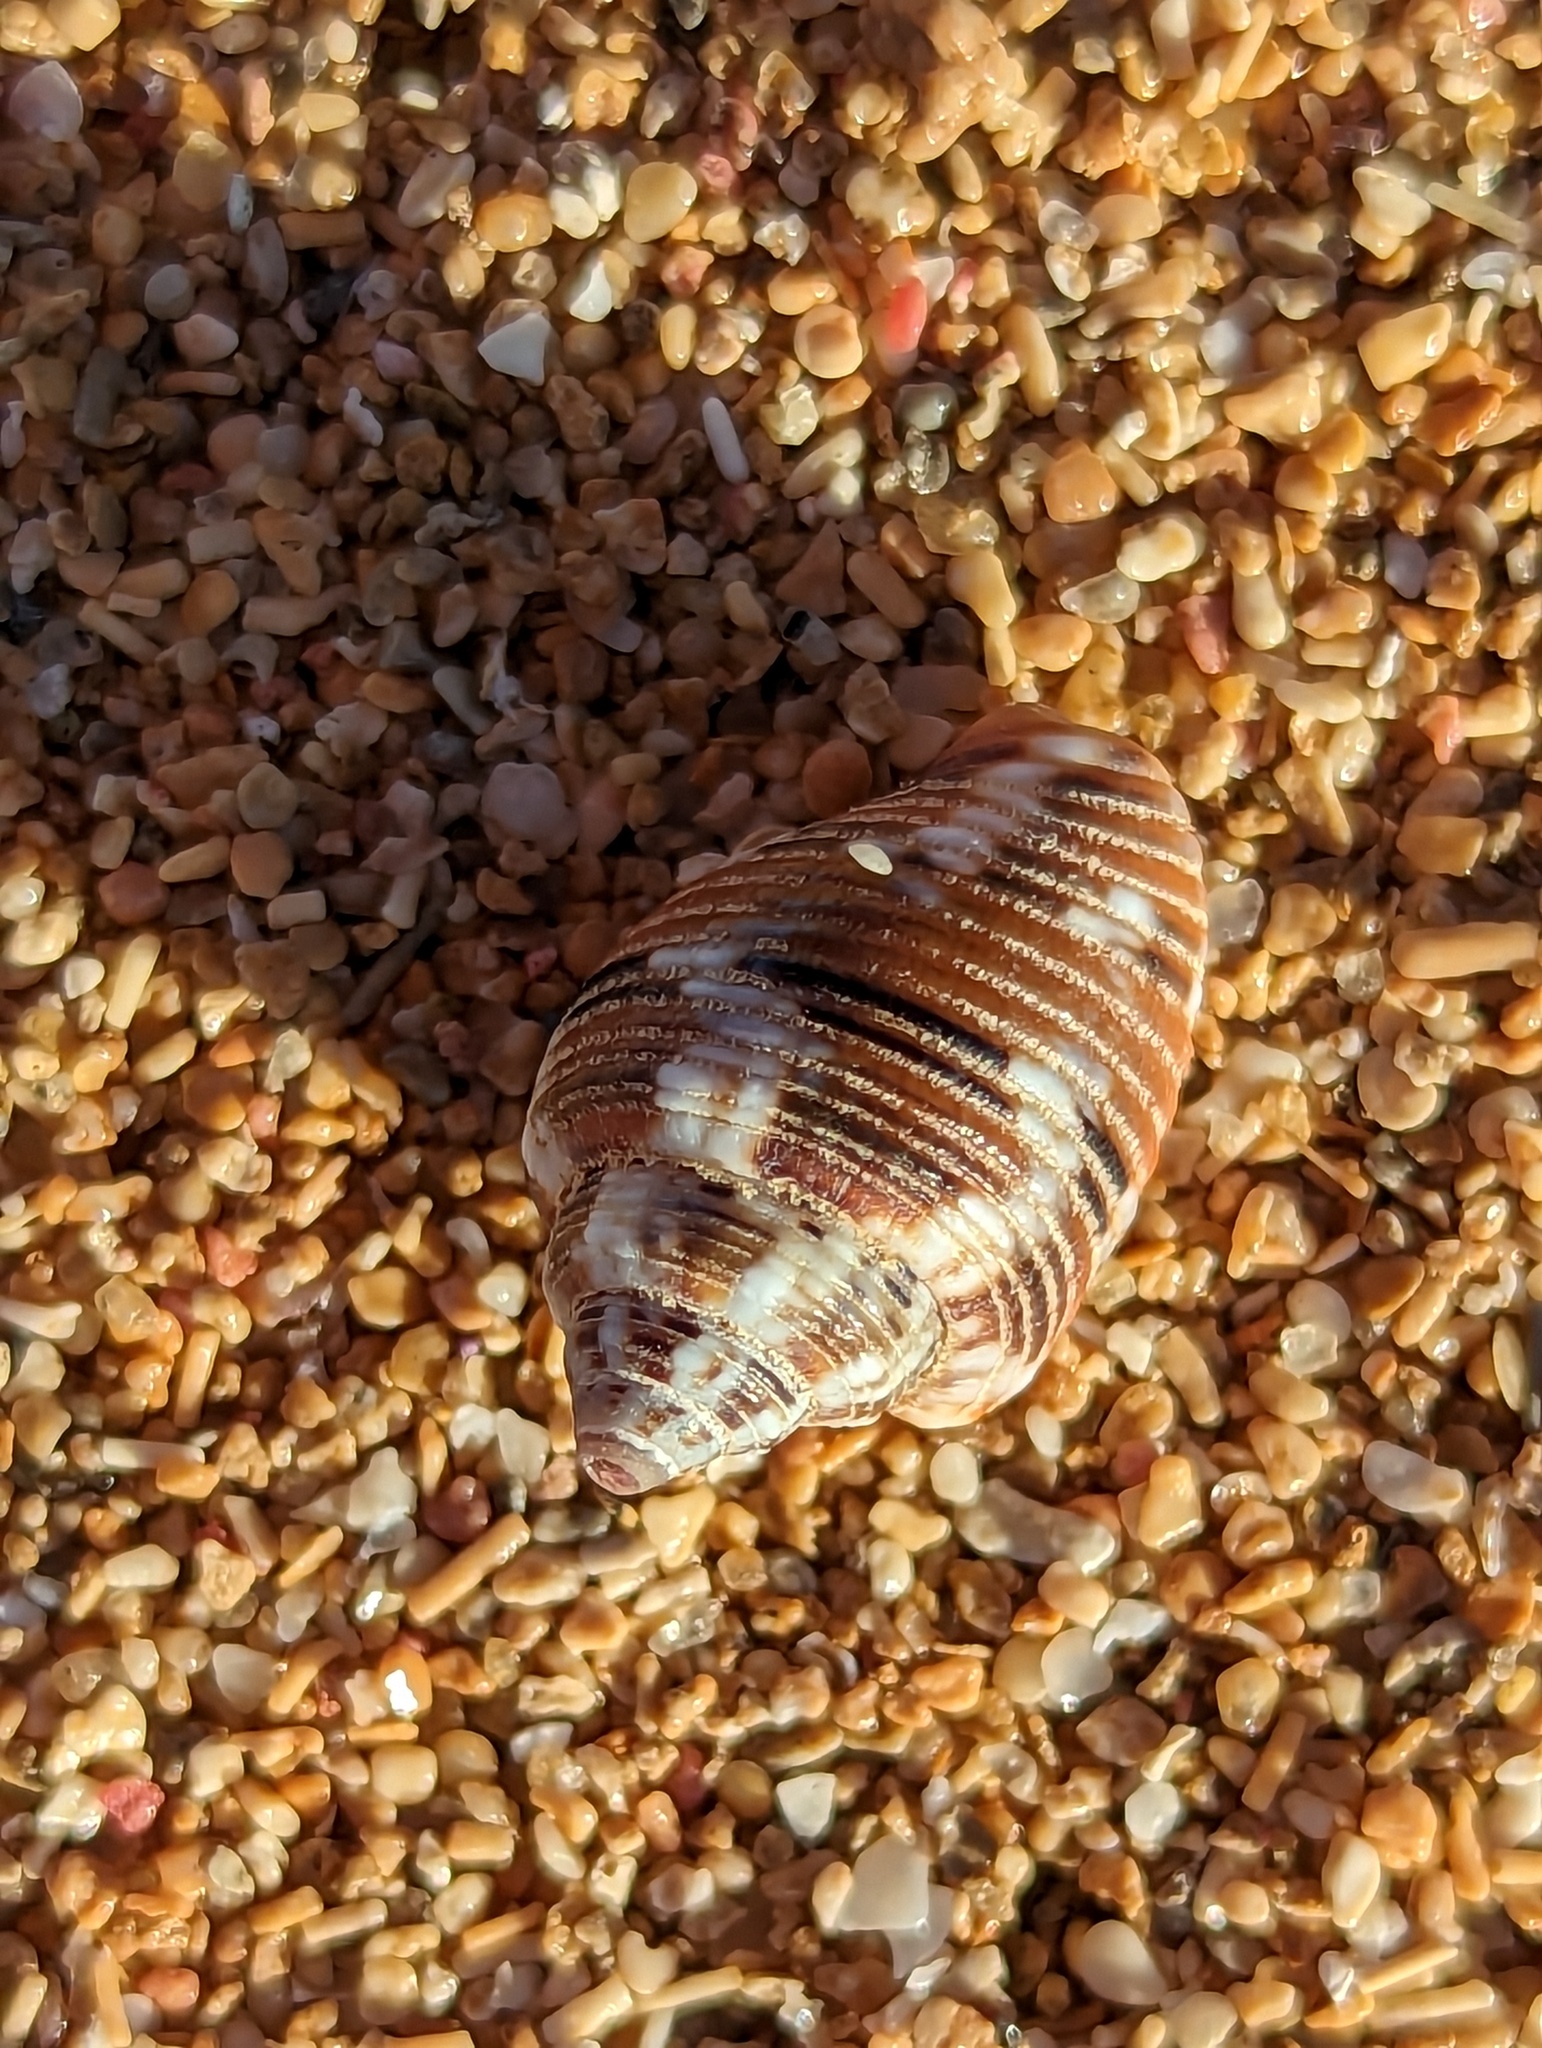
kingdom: Animalia
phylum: Mollusca
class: Gastropoda
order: Neogastropoda
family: Columbellidae
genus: Columbella
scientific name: Columbella mercatoria
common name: West indian dovesnail
